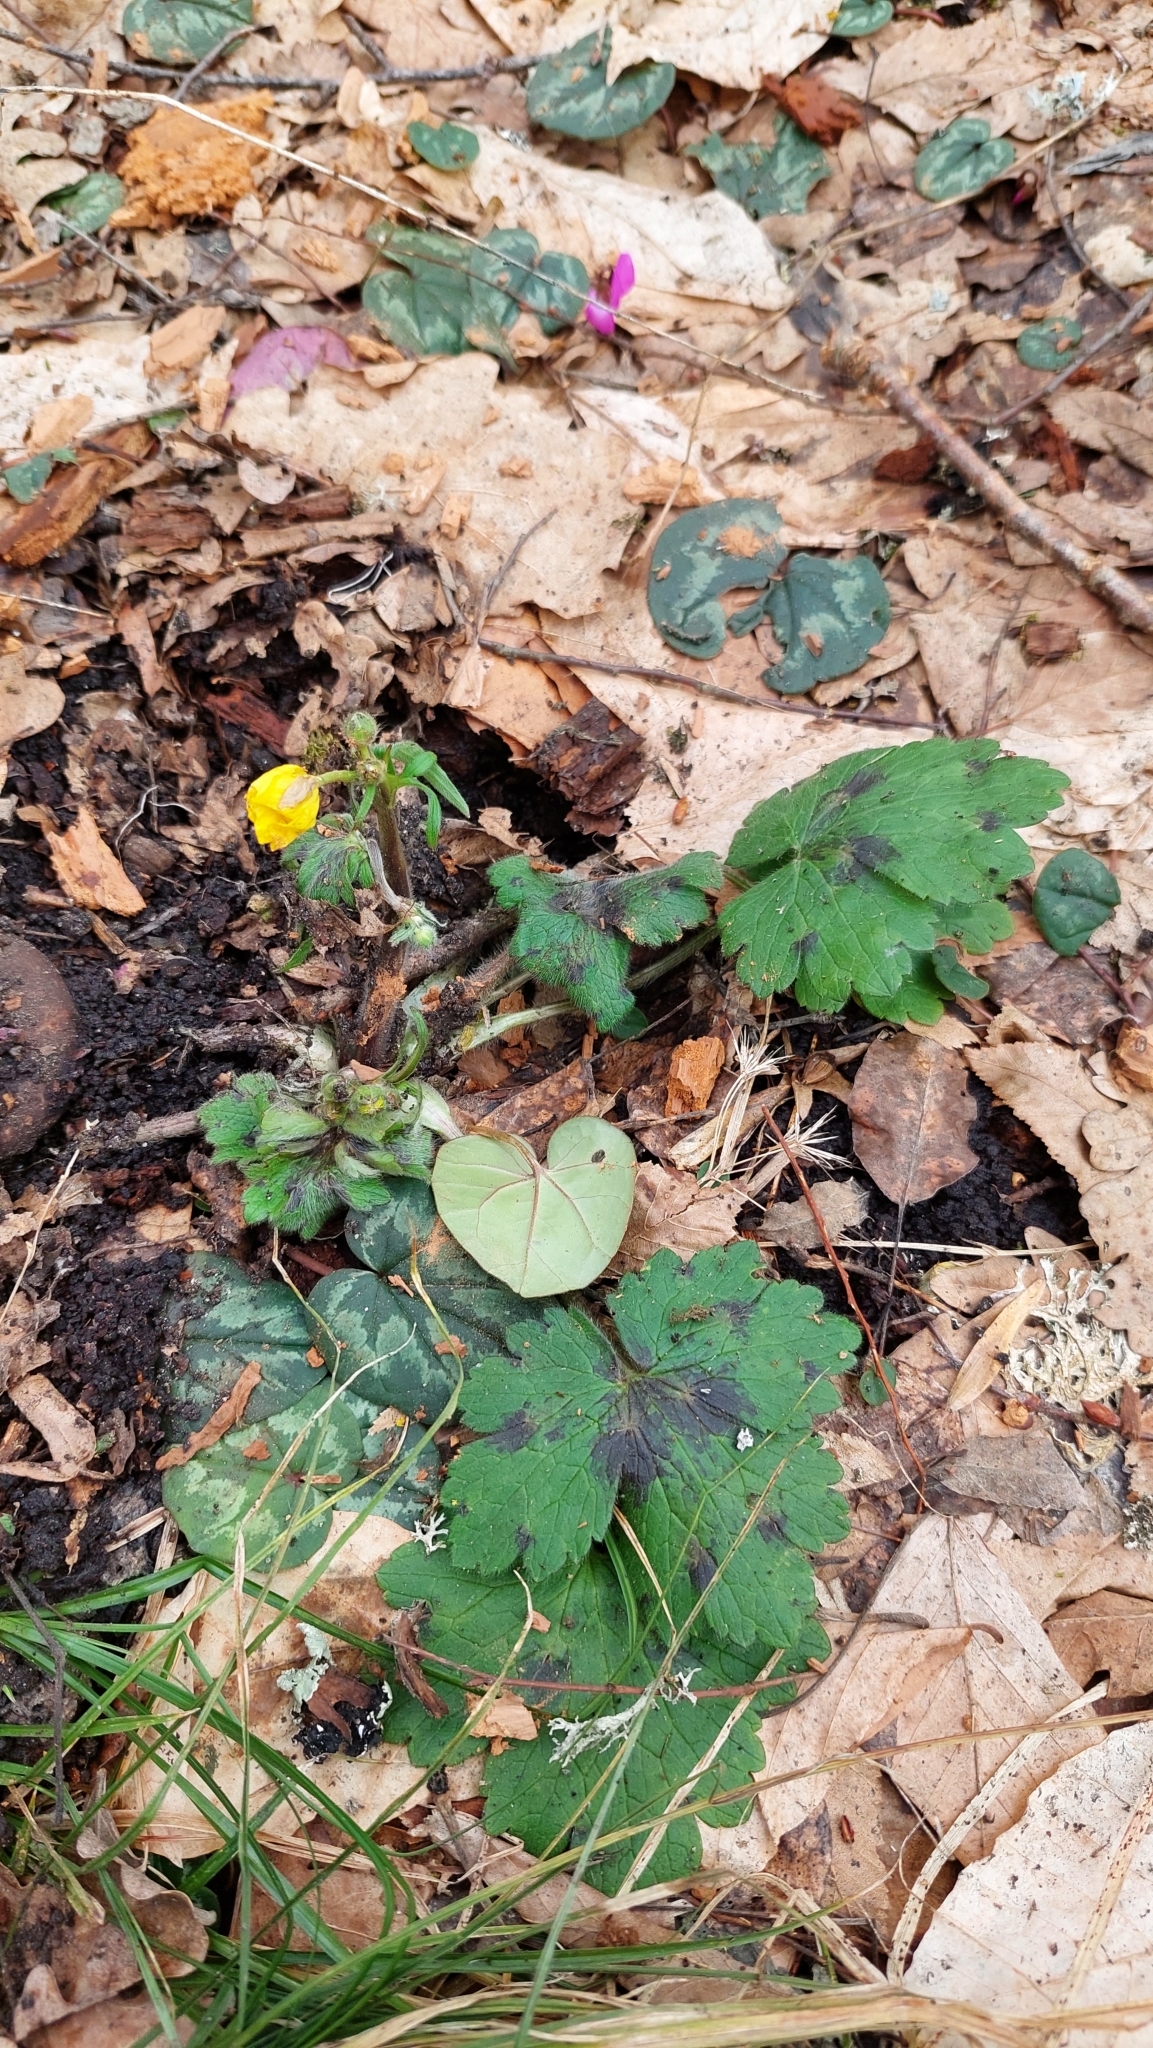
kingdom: Plantae
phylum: Tracheophyta
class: Magnoliopsida
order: Ranunculales
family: Ranunculaceae
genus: Ranunculus
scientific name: Ranunculus constantinopolitanus
